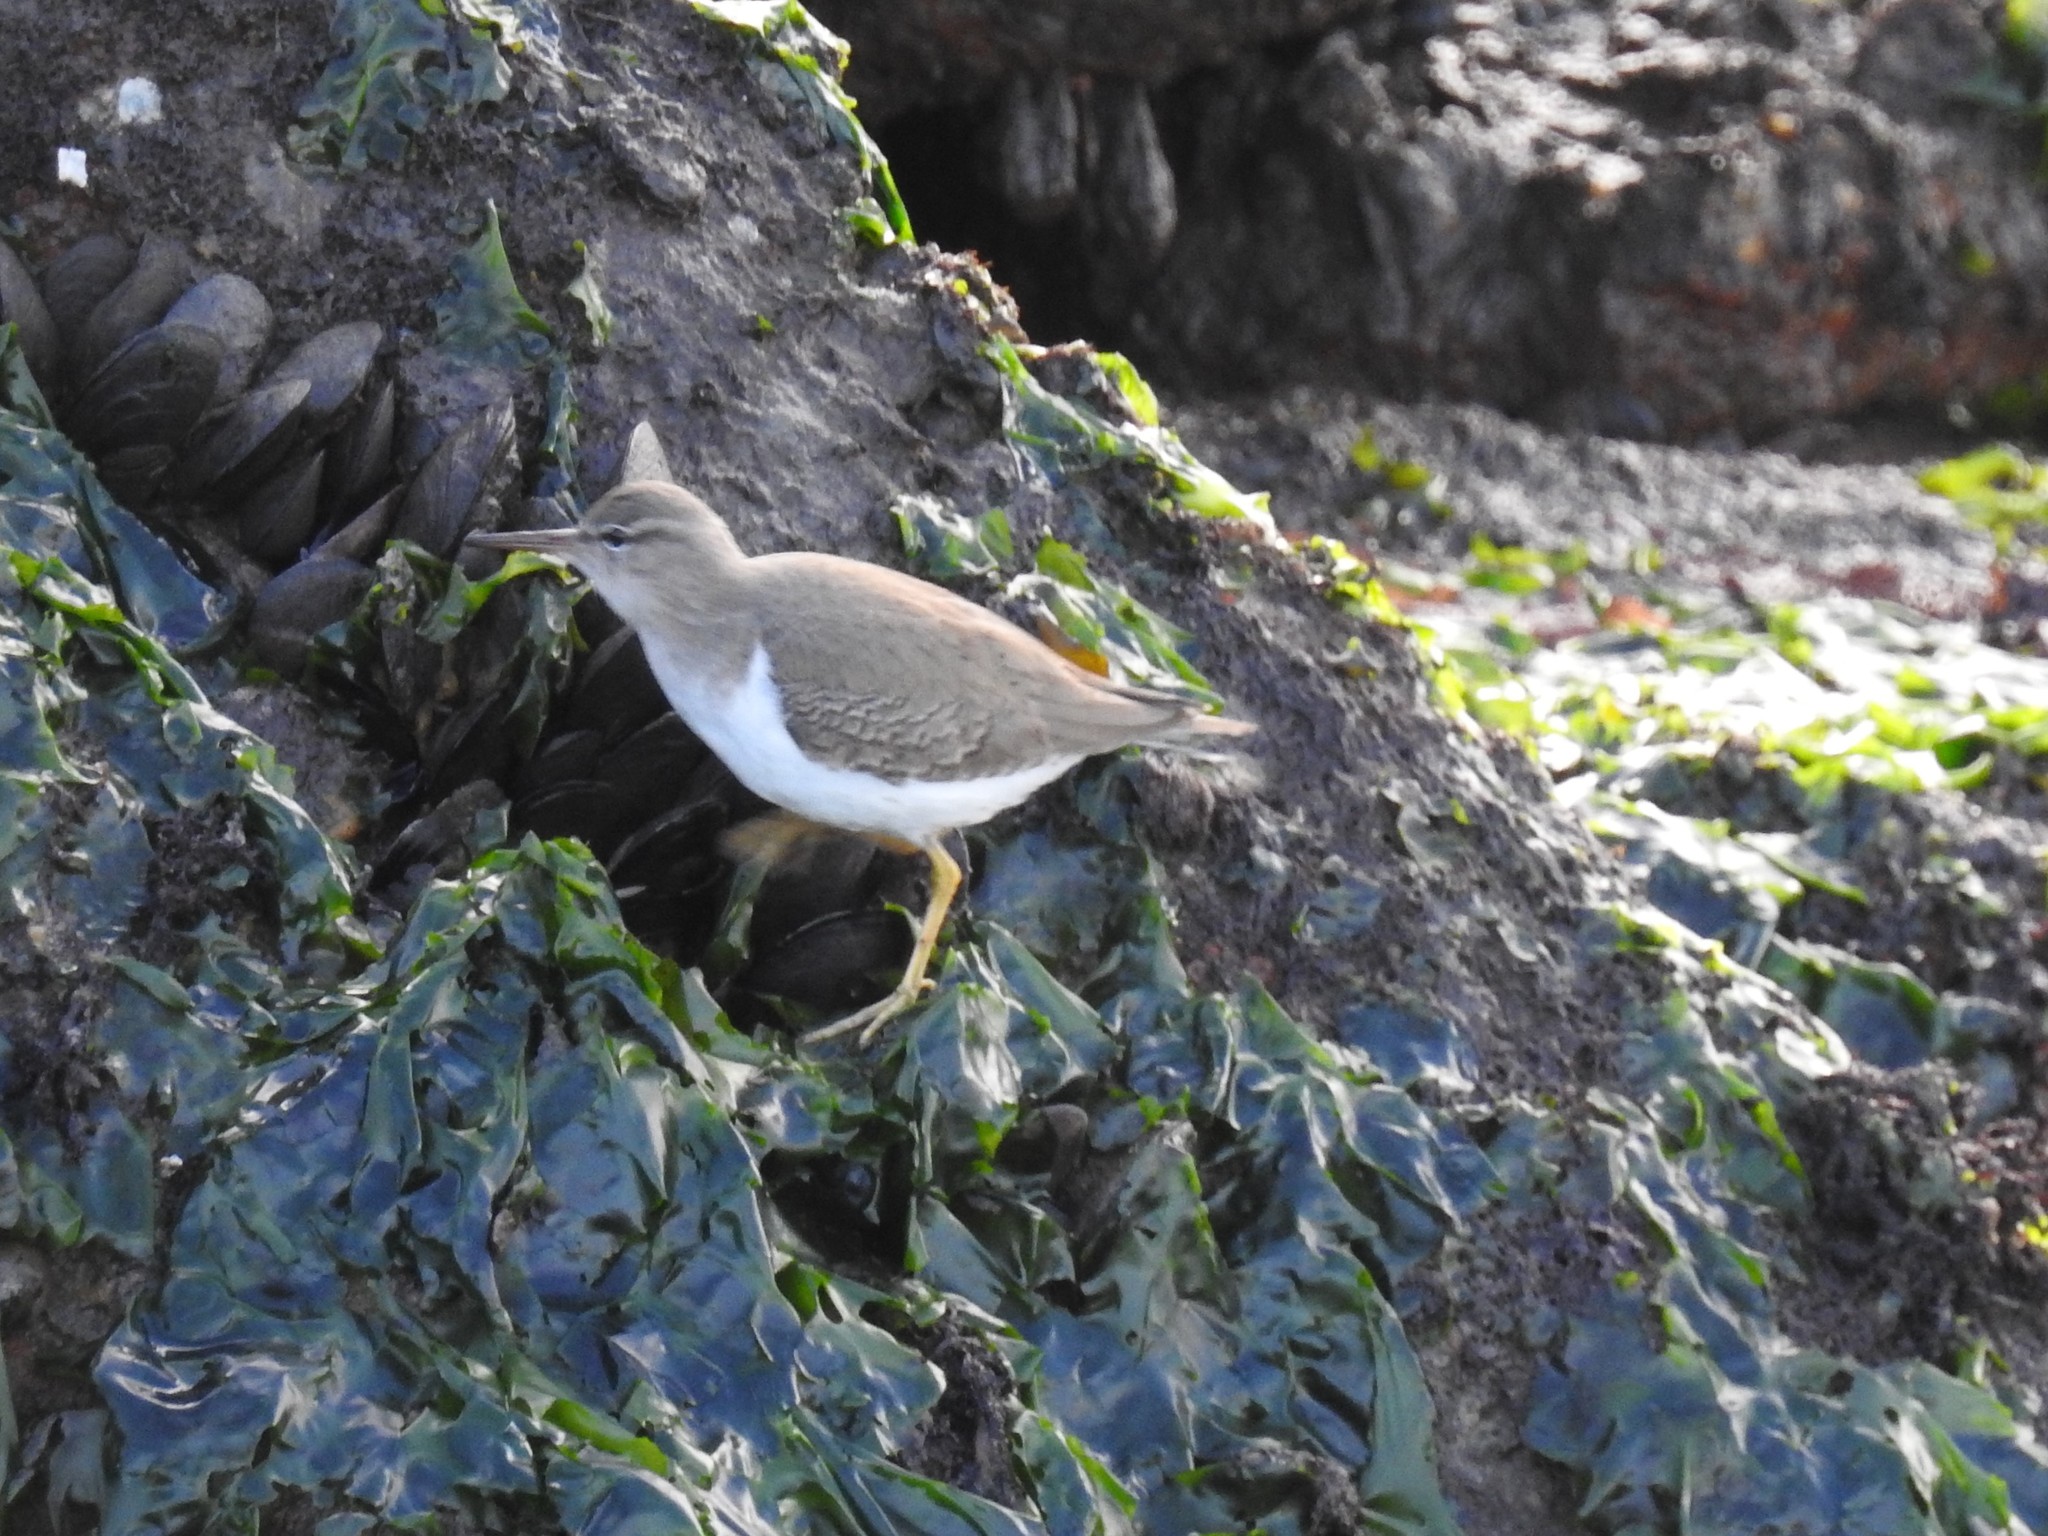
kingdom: Animalia
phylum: Chordata
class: Aves
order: Charadriiformes
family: Scolopacidae
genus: Actitis
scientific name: Actitis macularius
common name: Spotted sandpiper
